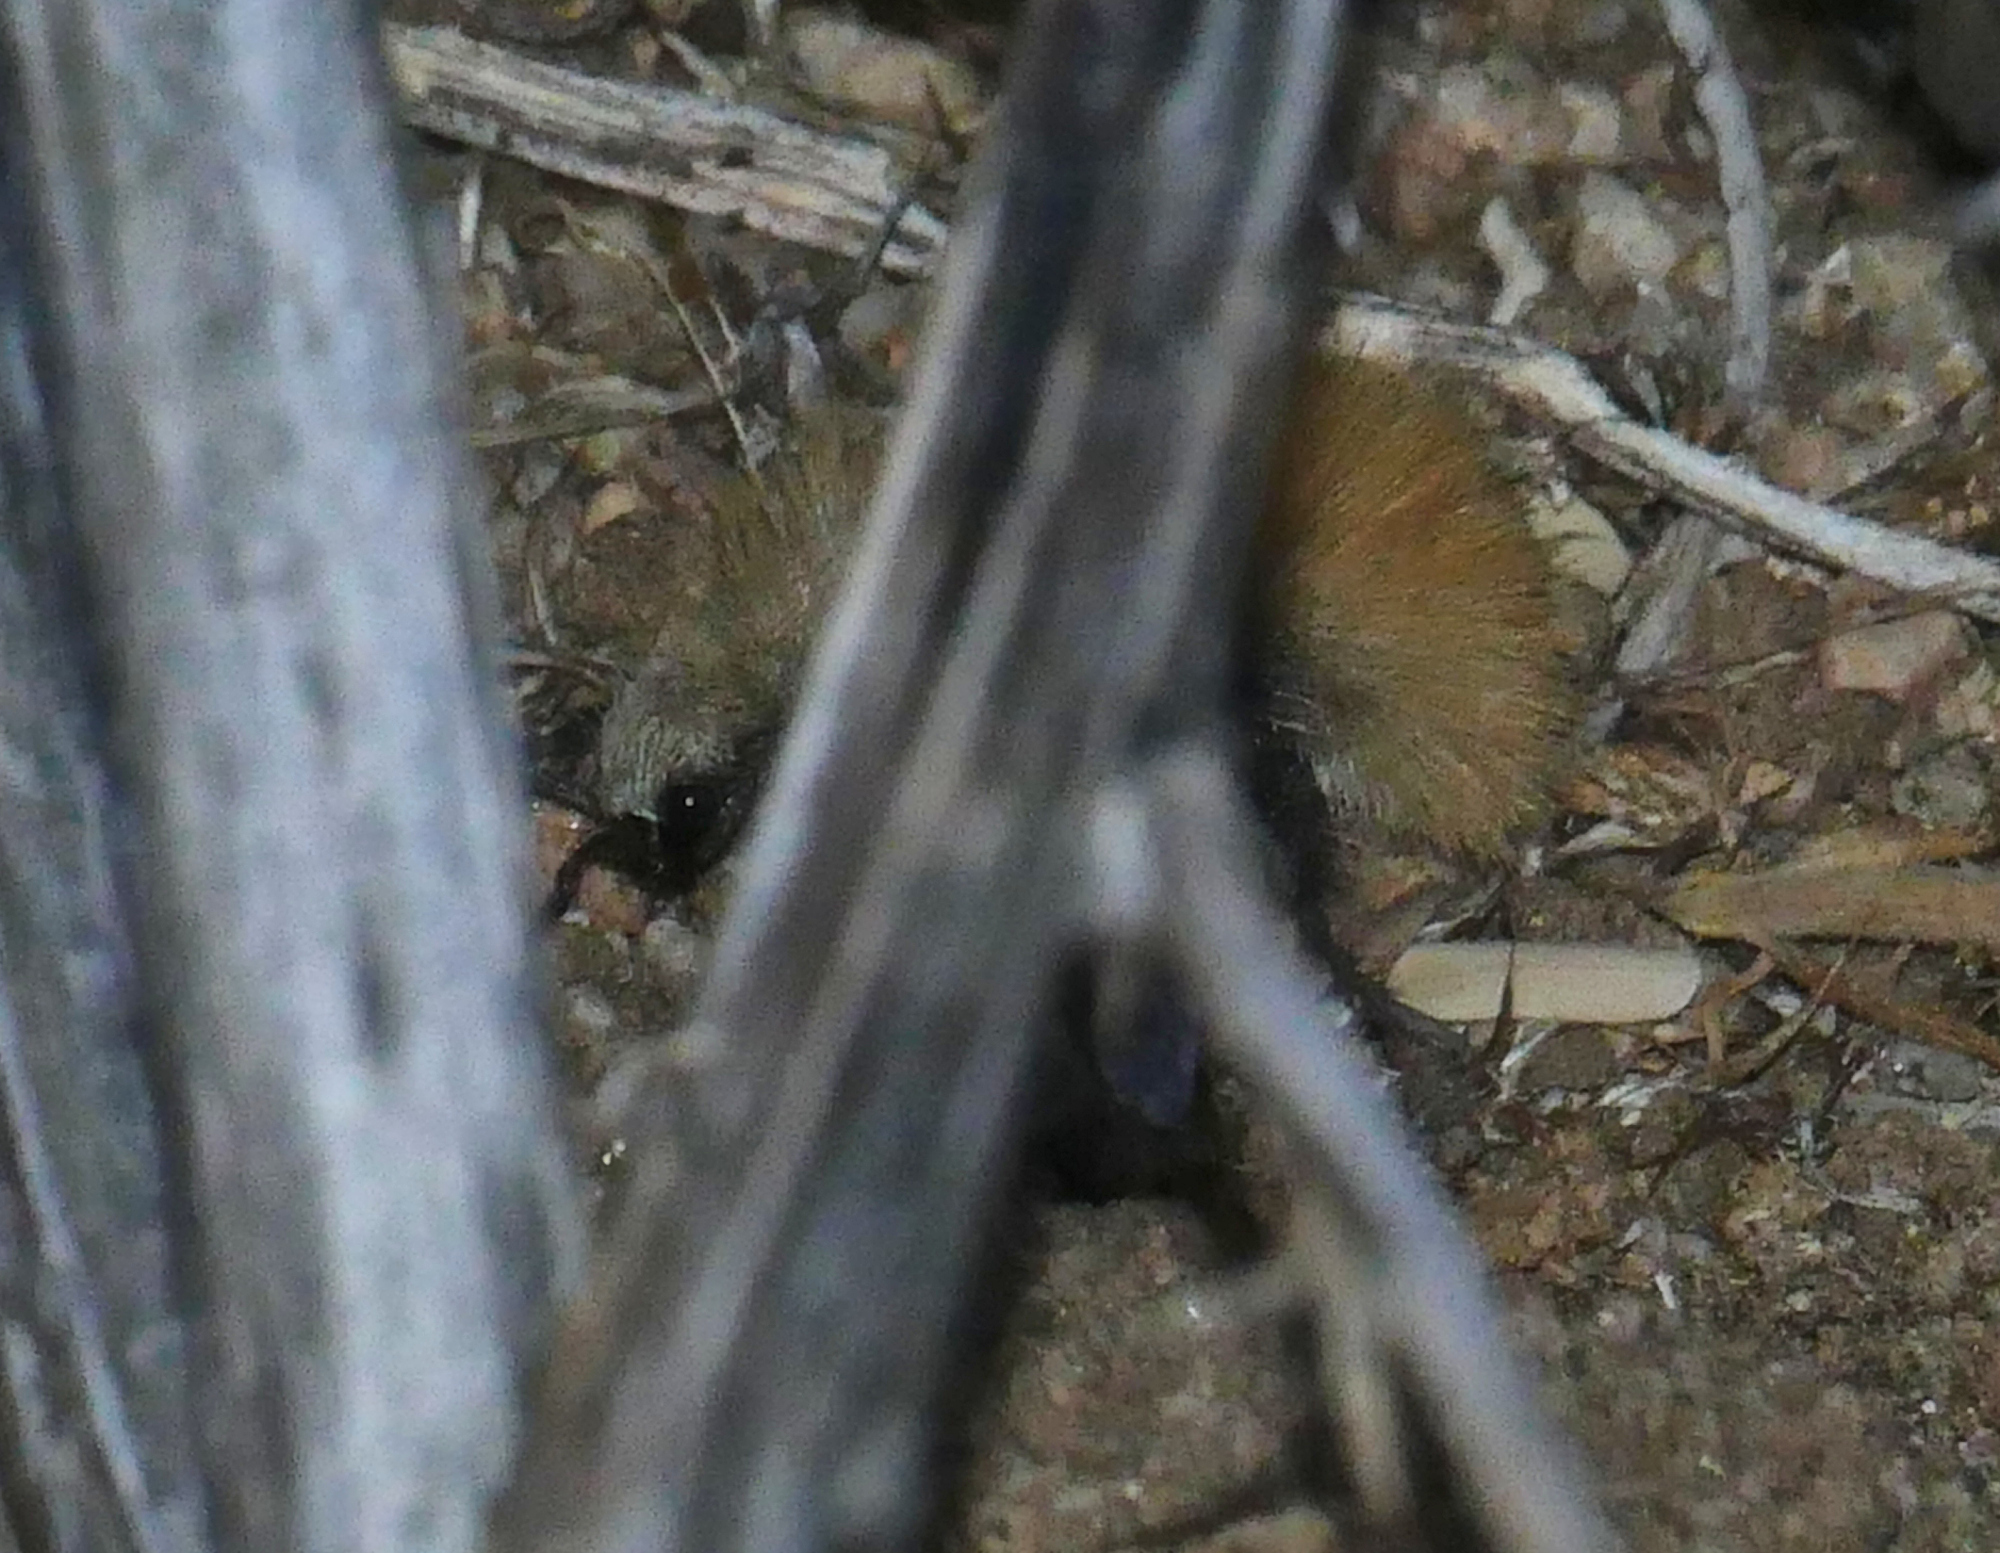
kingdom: Animalia
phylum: Arthropoda
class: Insecta
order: Hymenoptera
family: Mutillidae
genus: Dasymutilla
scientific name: Dasymutilla satanas
